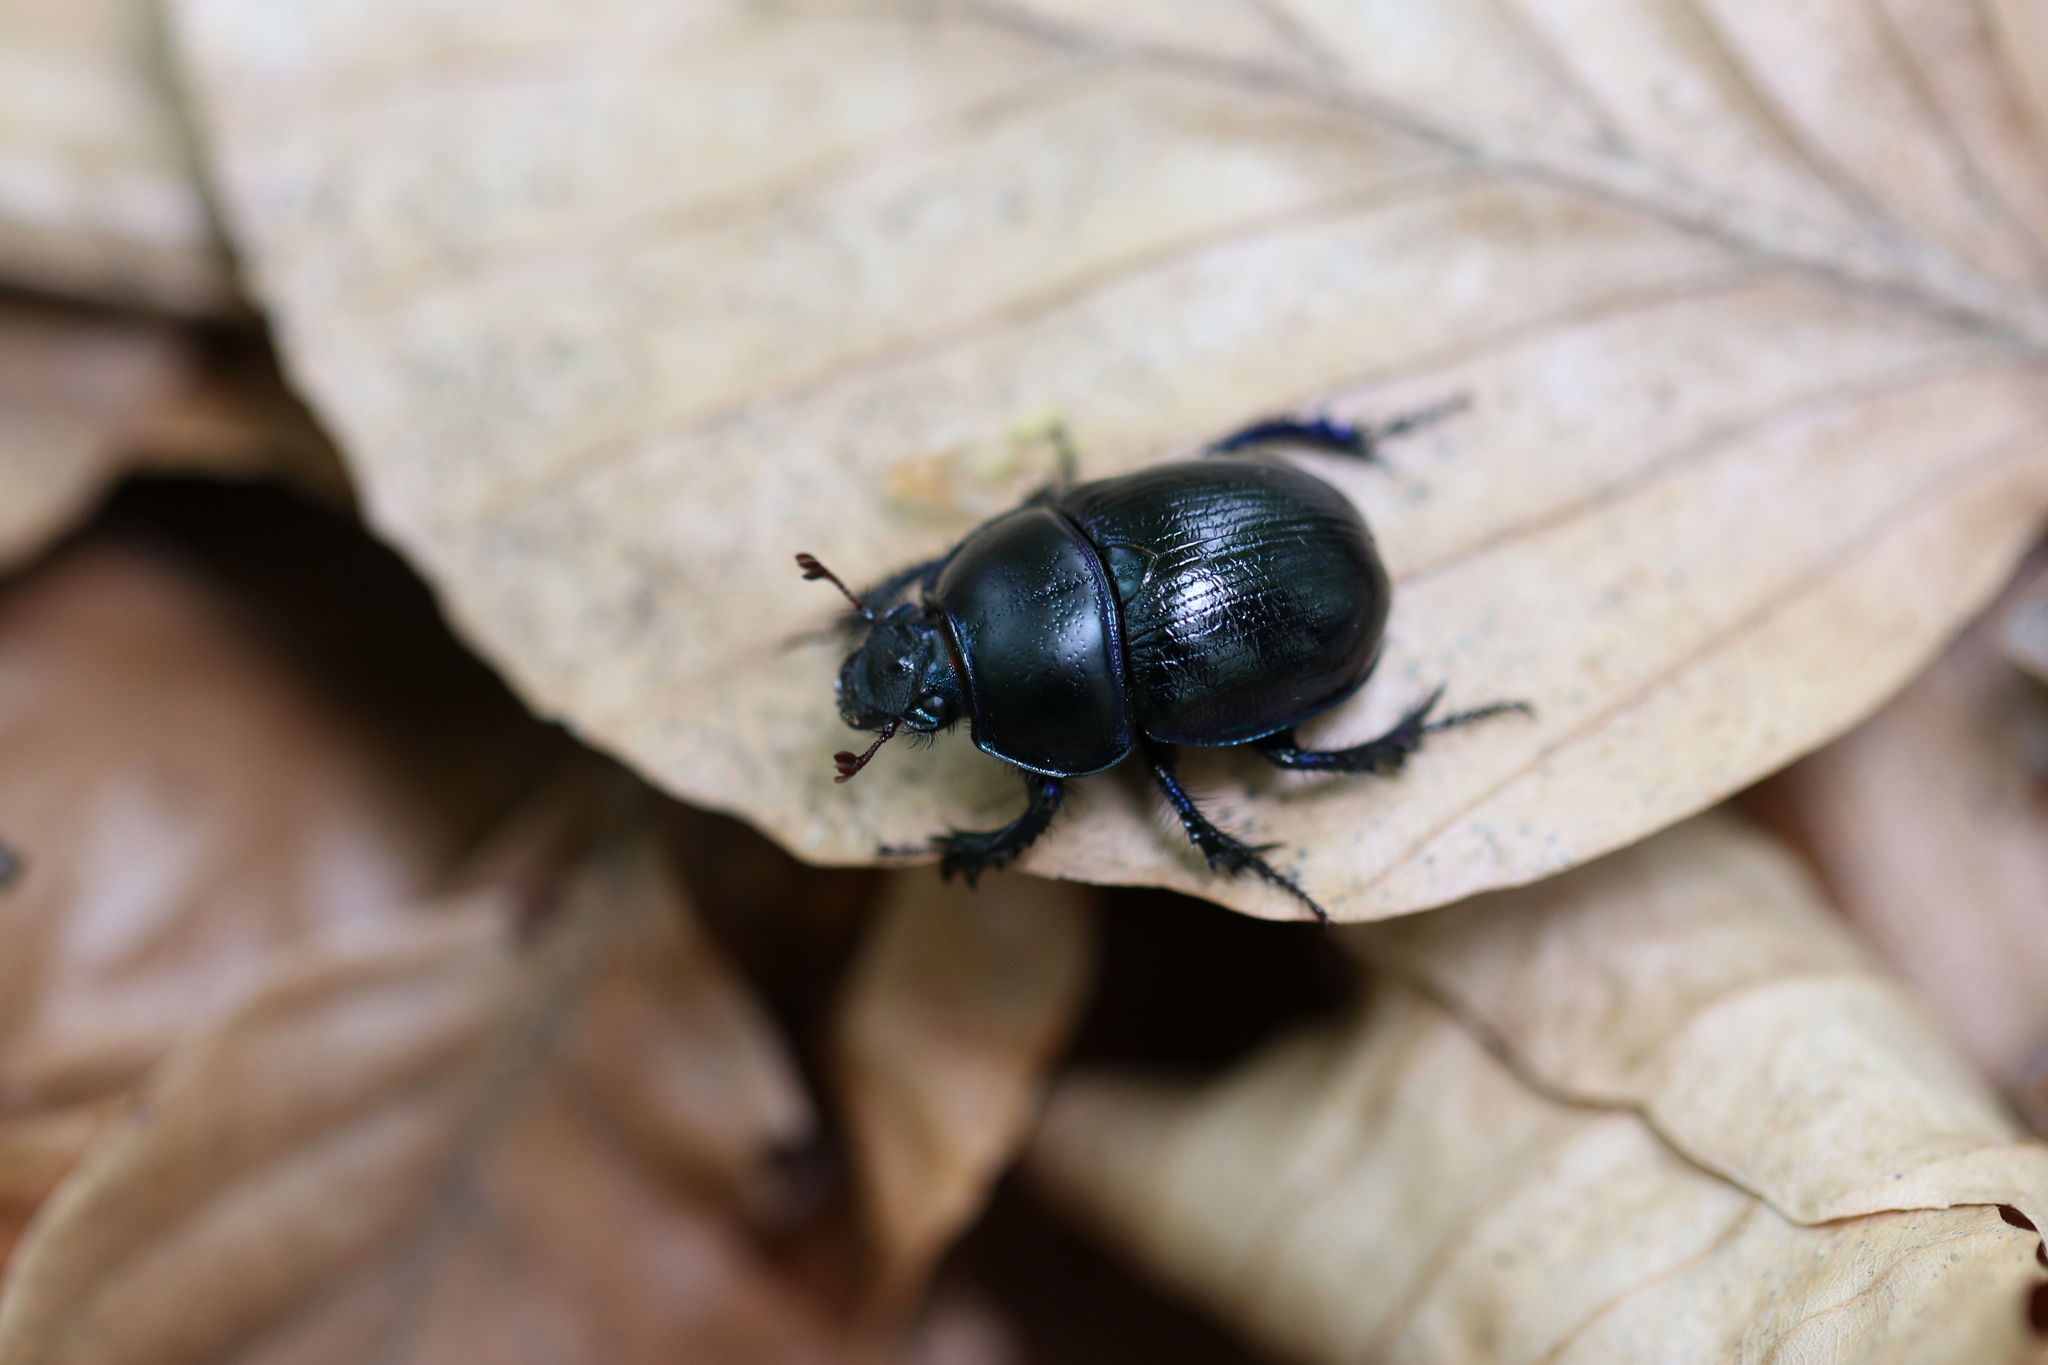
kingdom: Animalia
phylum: Arthropoda
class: Insecta
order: Coleoptera
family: Geotrupidae
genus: Anoplotrupes
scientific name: Anoplotrupes stercorosus
